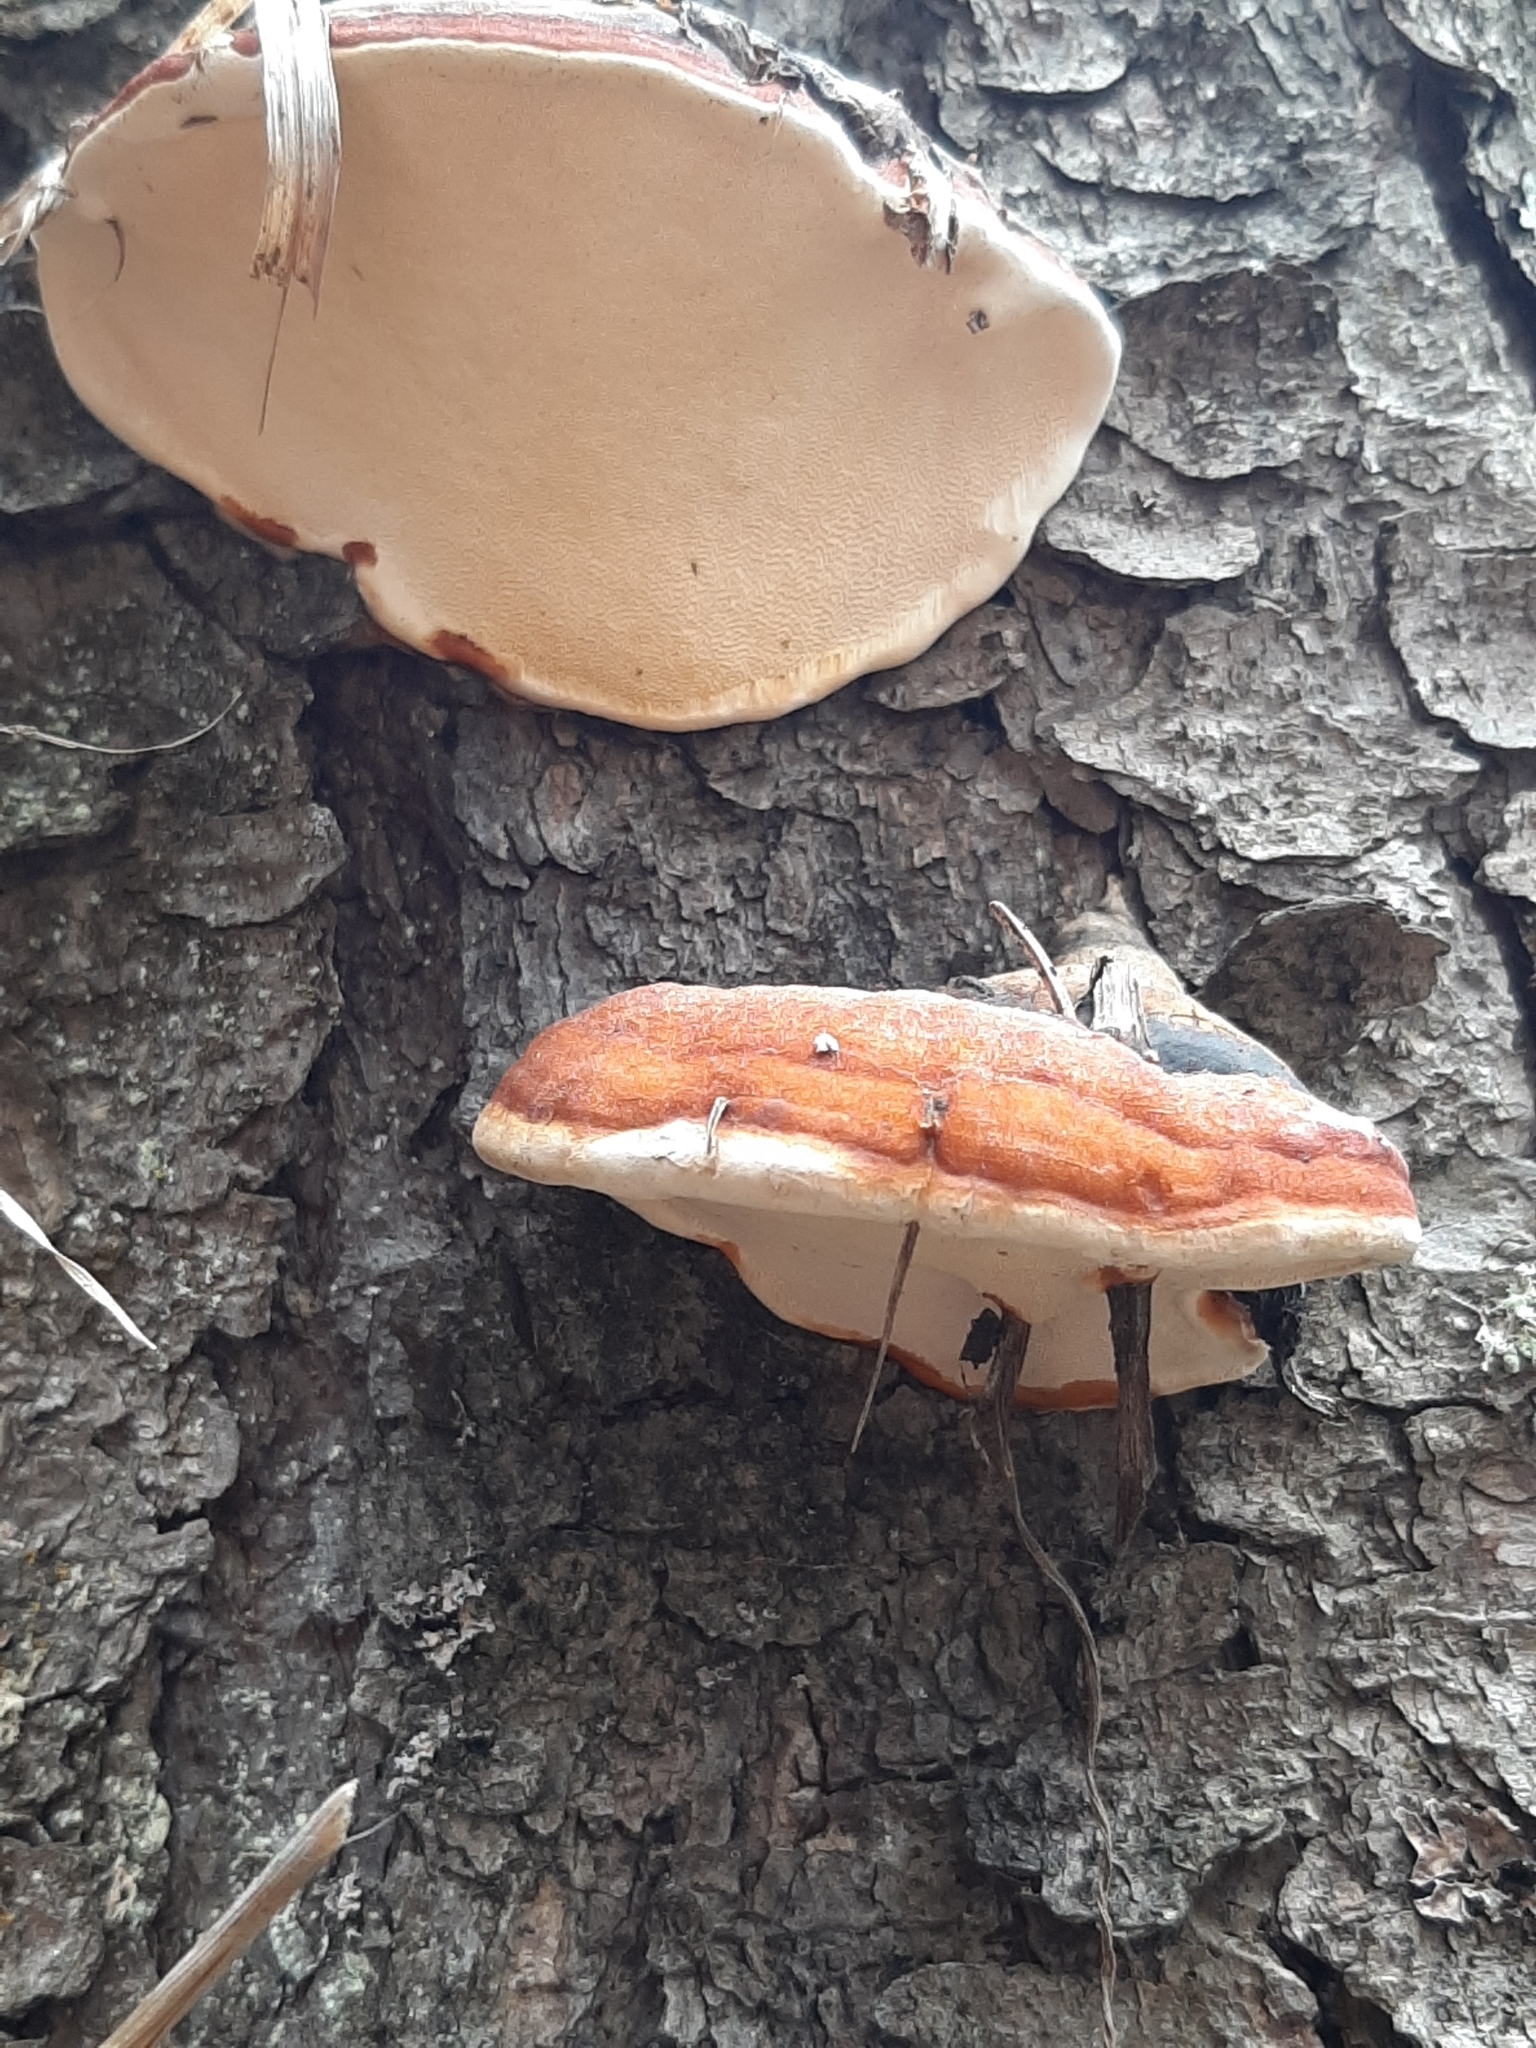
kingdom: Fungi
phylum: Basidiomycota
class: Agaricomycetes
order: Polyporales
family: Fomitopsidaceae
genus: Fomitopsis
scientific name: Fomitopsis mounceae
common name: Northern red belt
